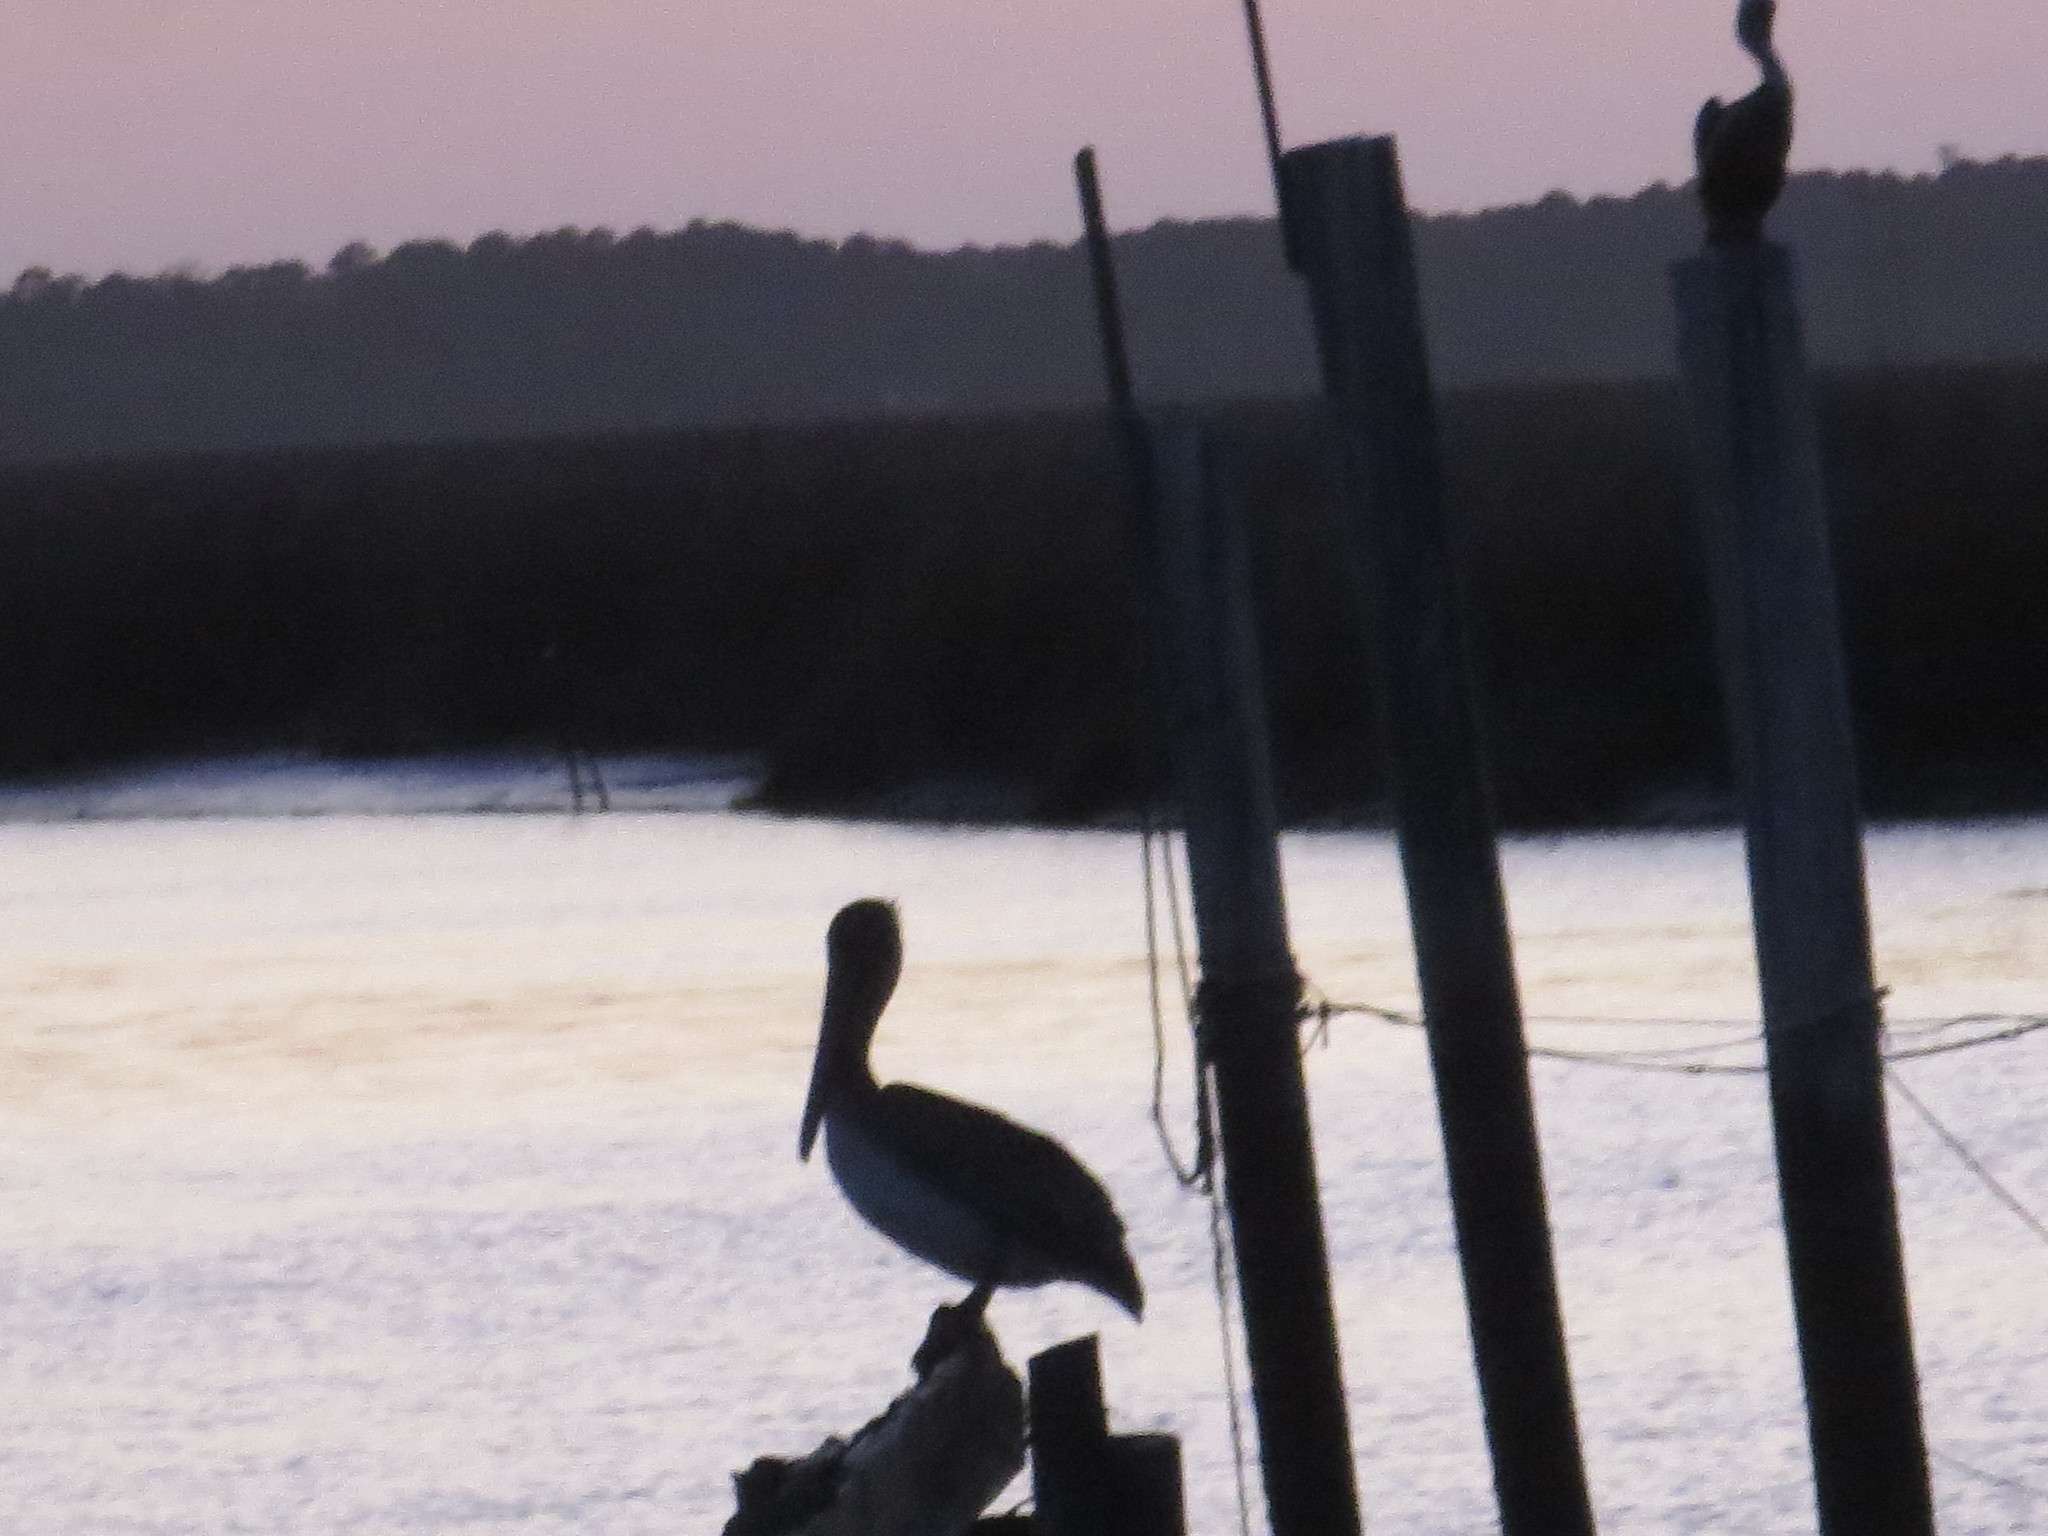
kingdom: Animalia
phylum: Chordata
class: Aves
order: Pelecaniformes
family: Pelecanidae
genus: Pelecanus
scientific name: Pelecanus occidentalis
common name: Brown pelican
